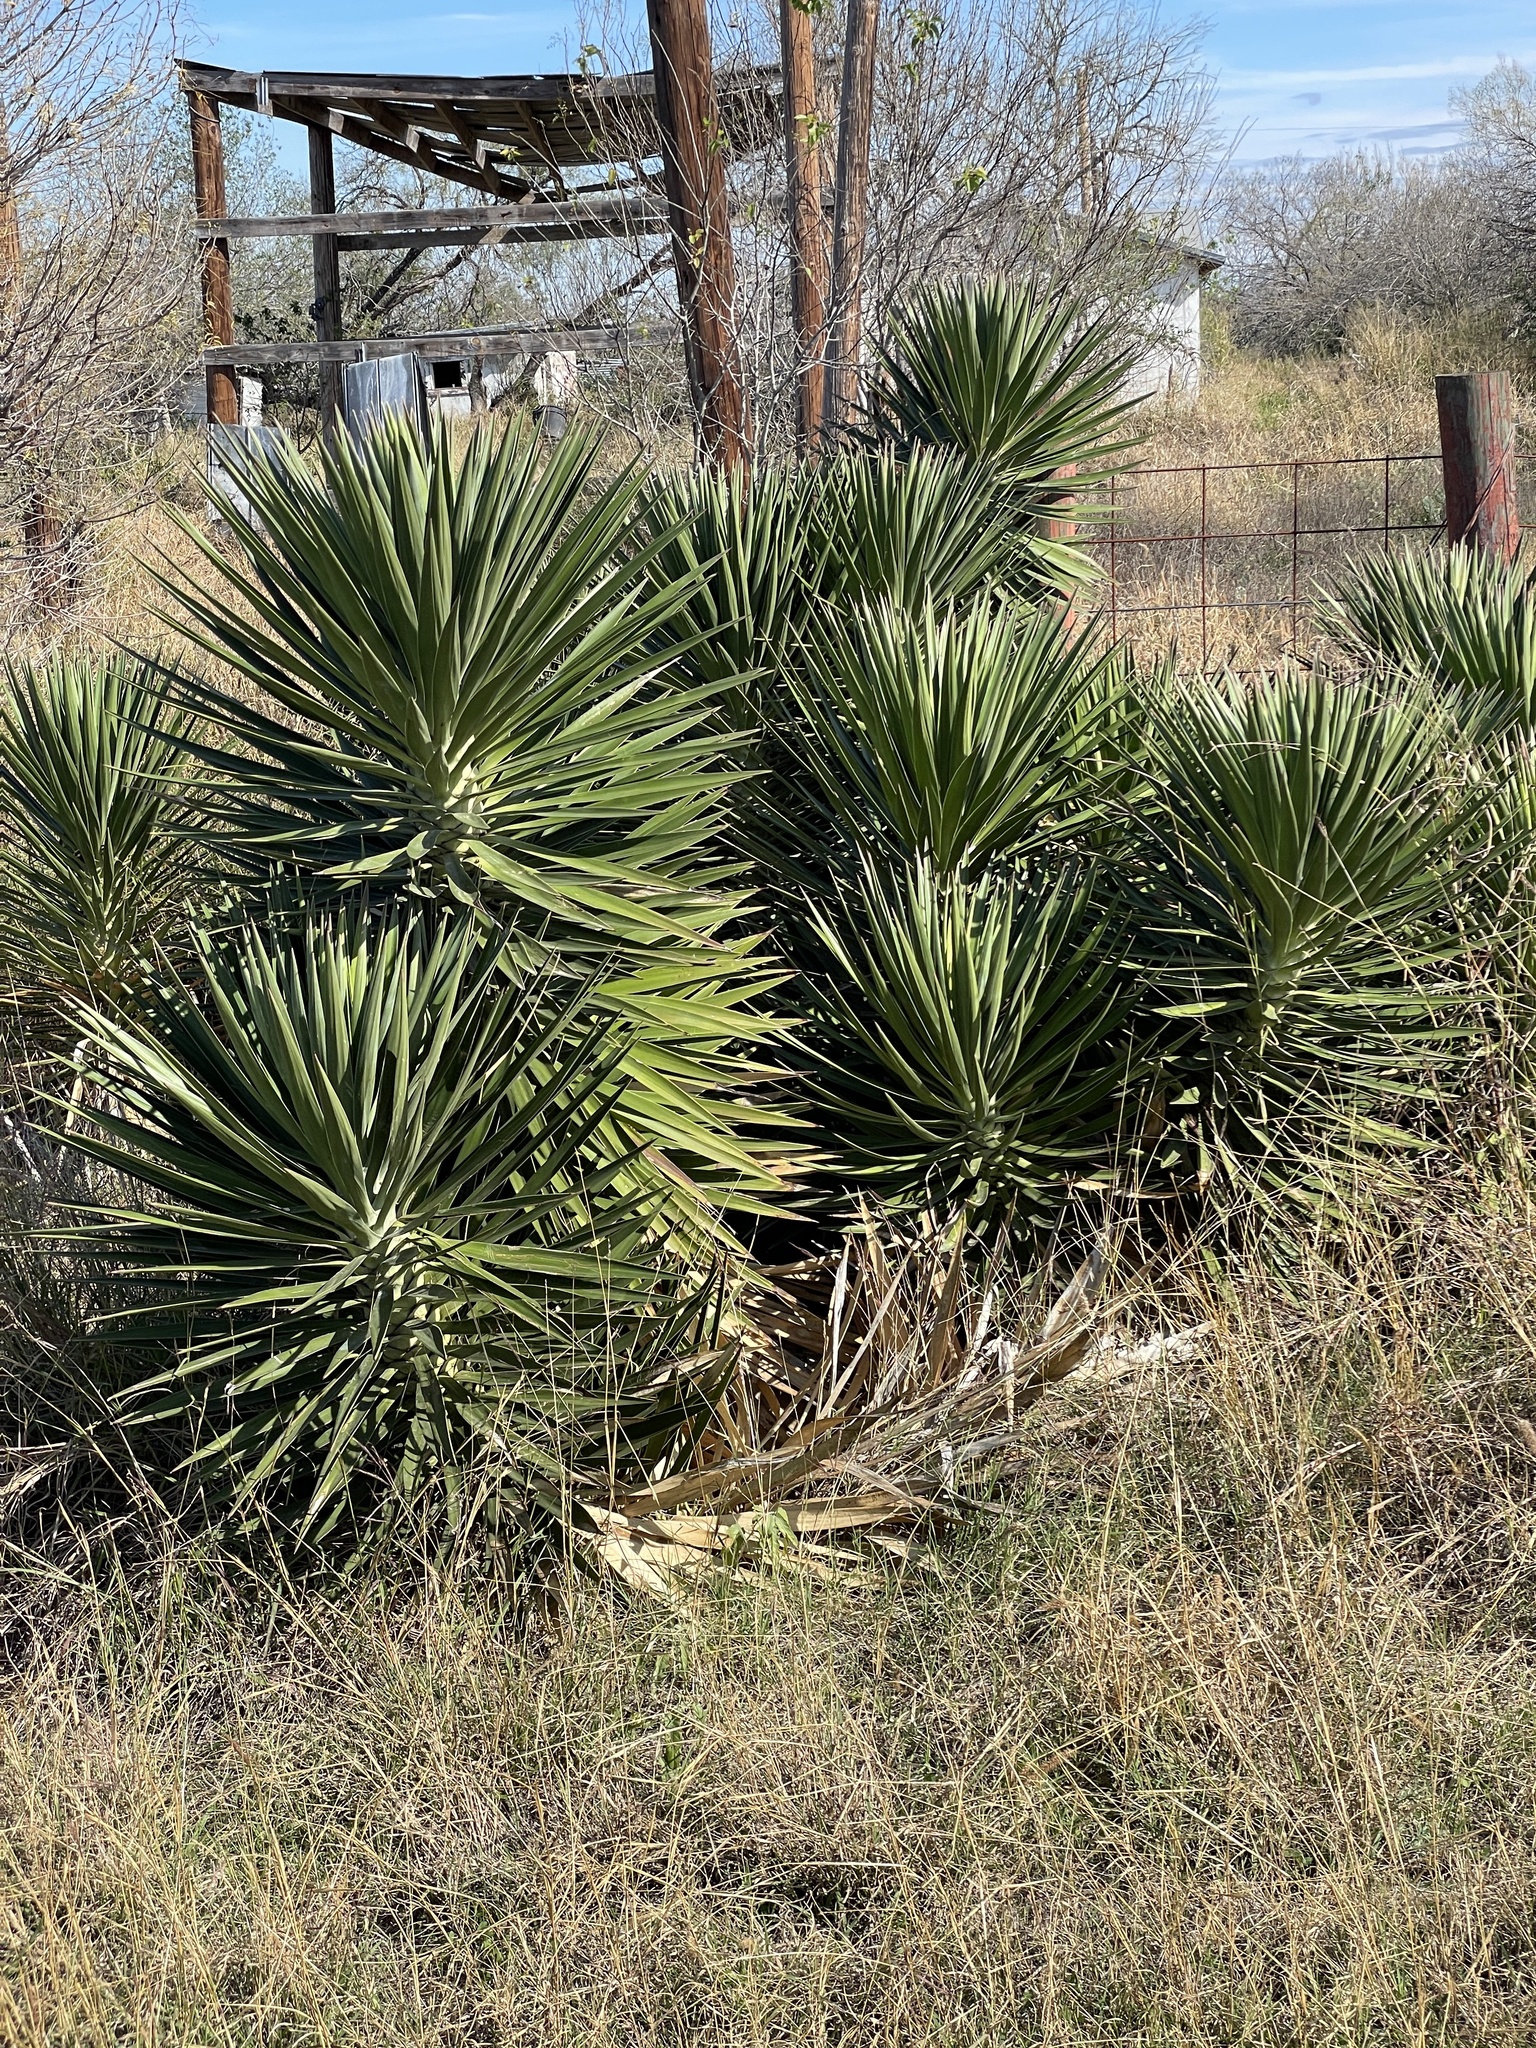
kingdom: Plantae
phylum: Tracheophyta
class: Liliopsida
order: Asparagales
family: Asparagaceae
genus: Yucca
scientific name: Yucca aloifolia
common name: Aloe yucca
